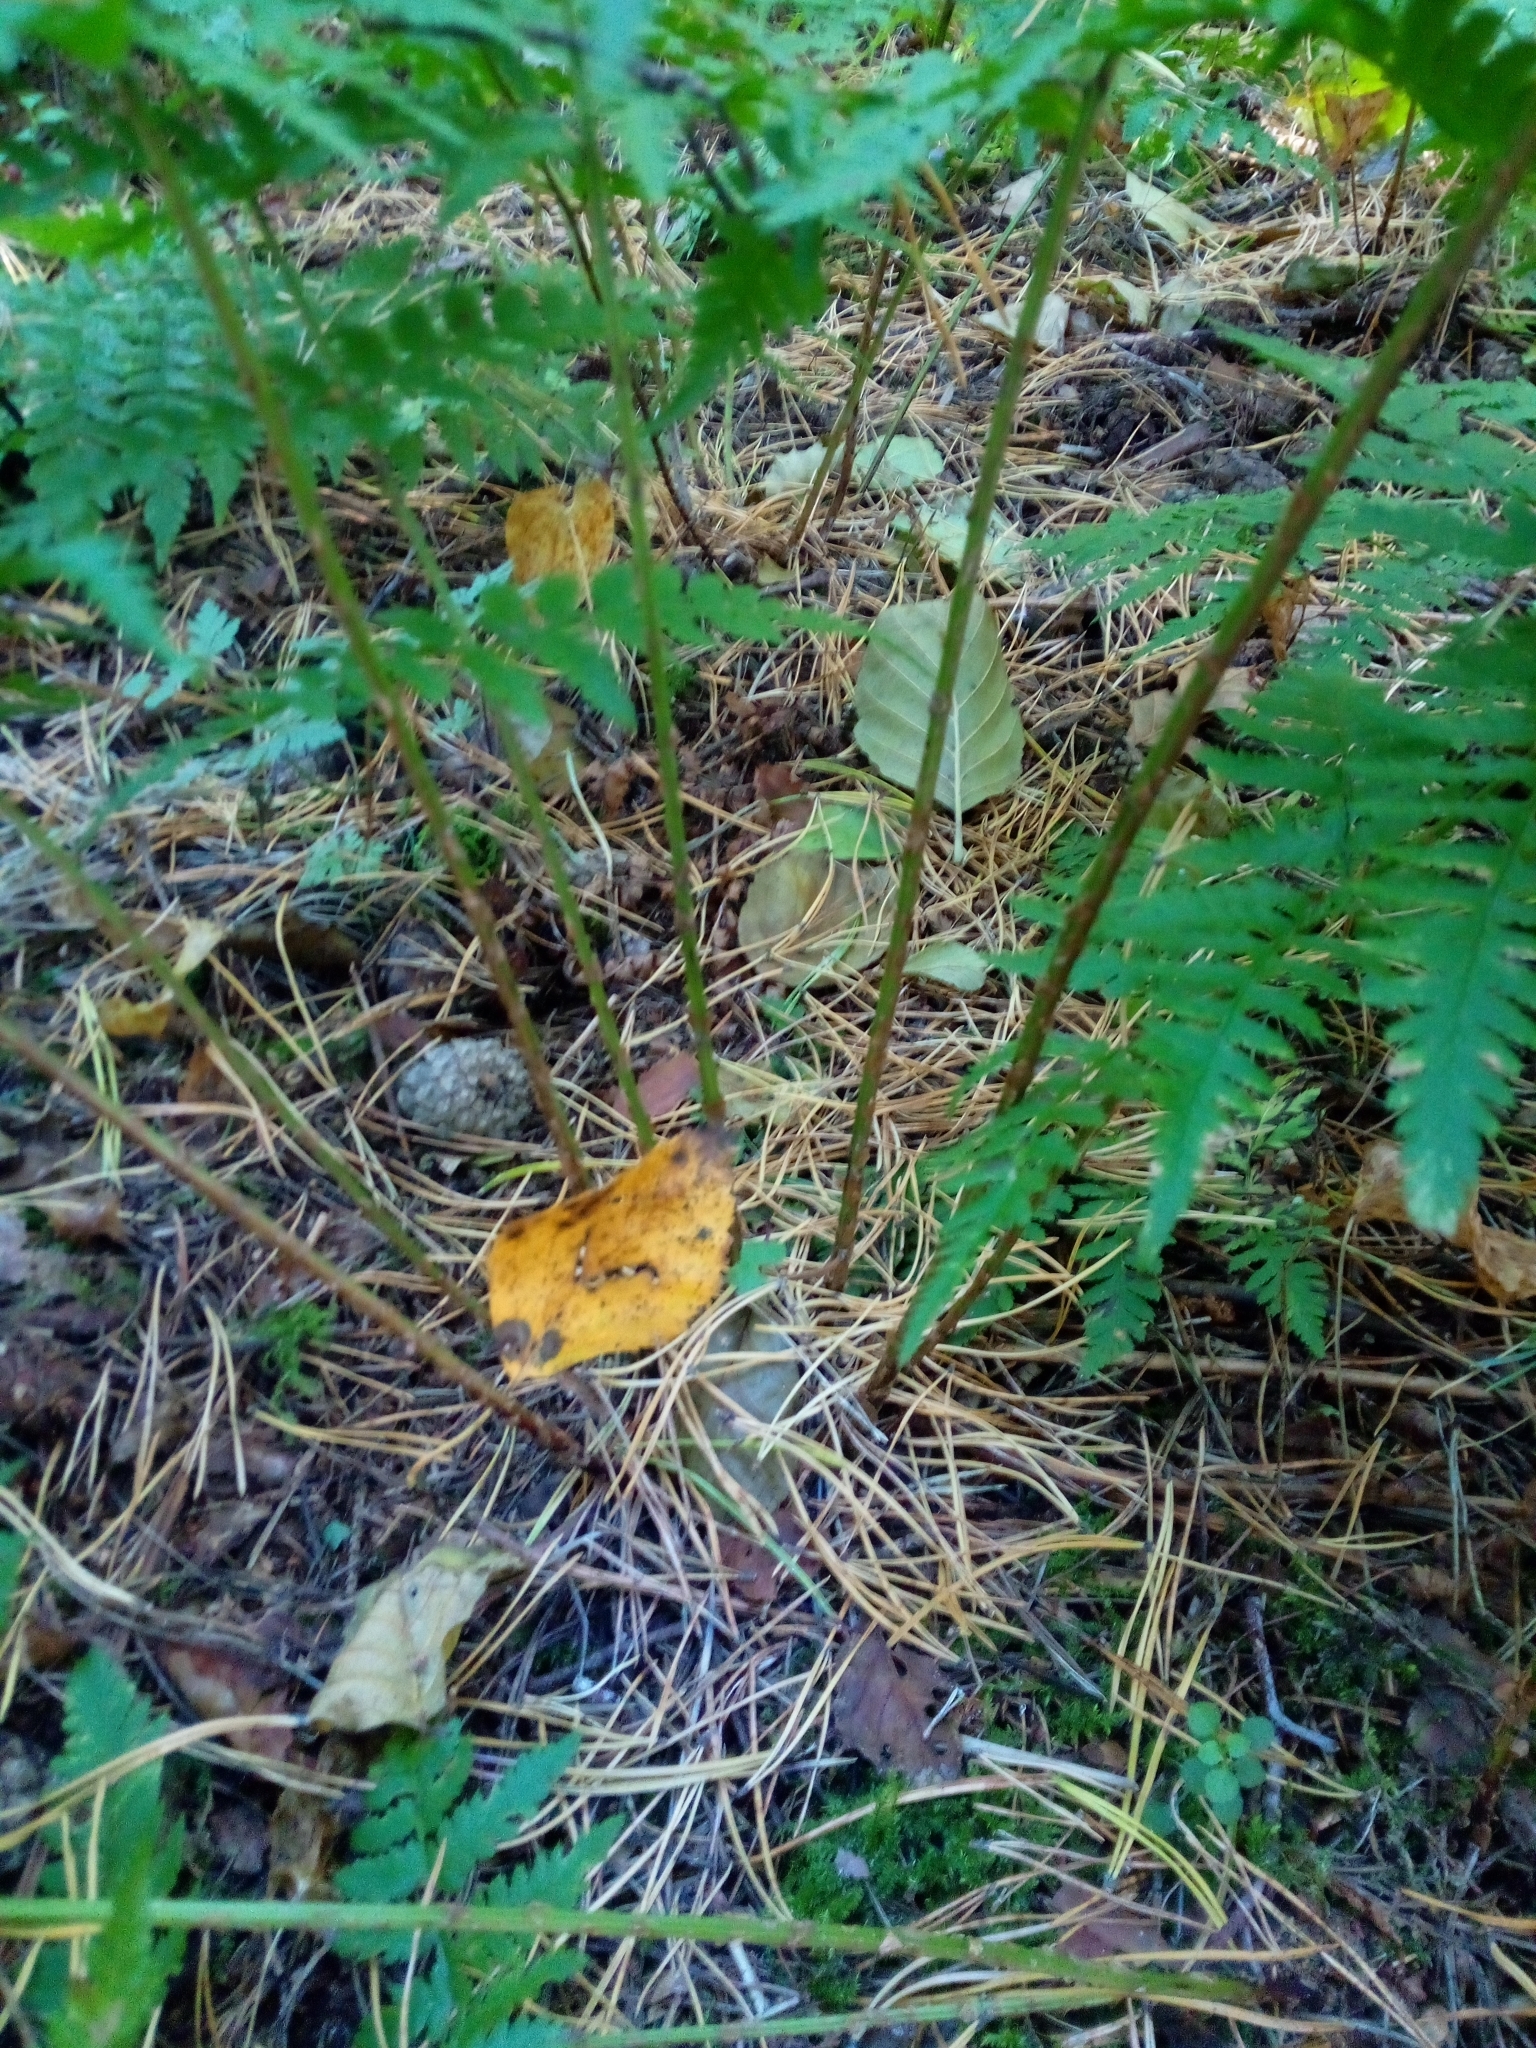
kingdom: Plantae
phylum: Tracheophyta
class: Polypodiopsida
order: Polypodiales
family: Dryopteridaceae
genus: Dryopteris
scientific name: Dryopteris carthusiana
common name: Narrow buckler-fern
